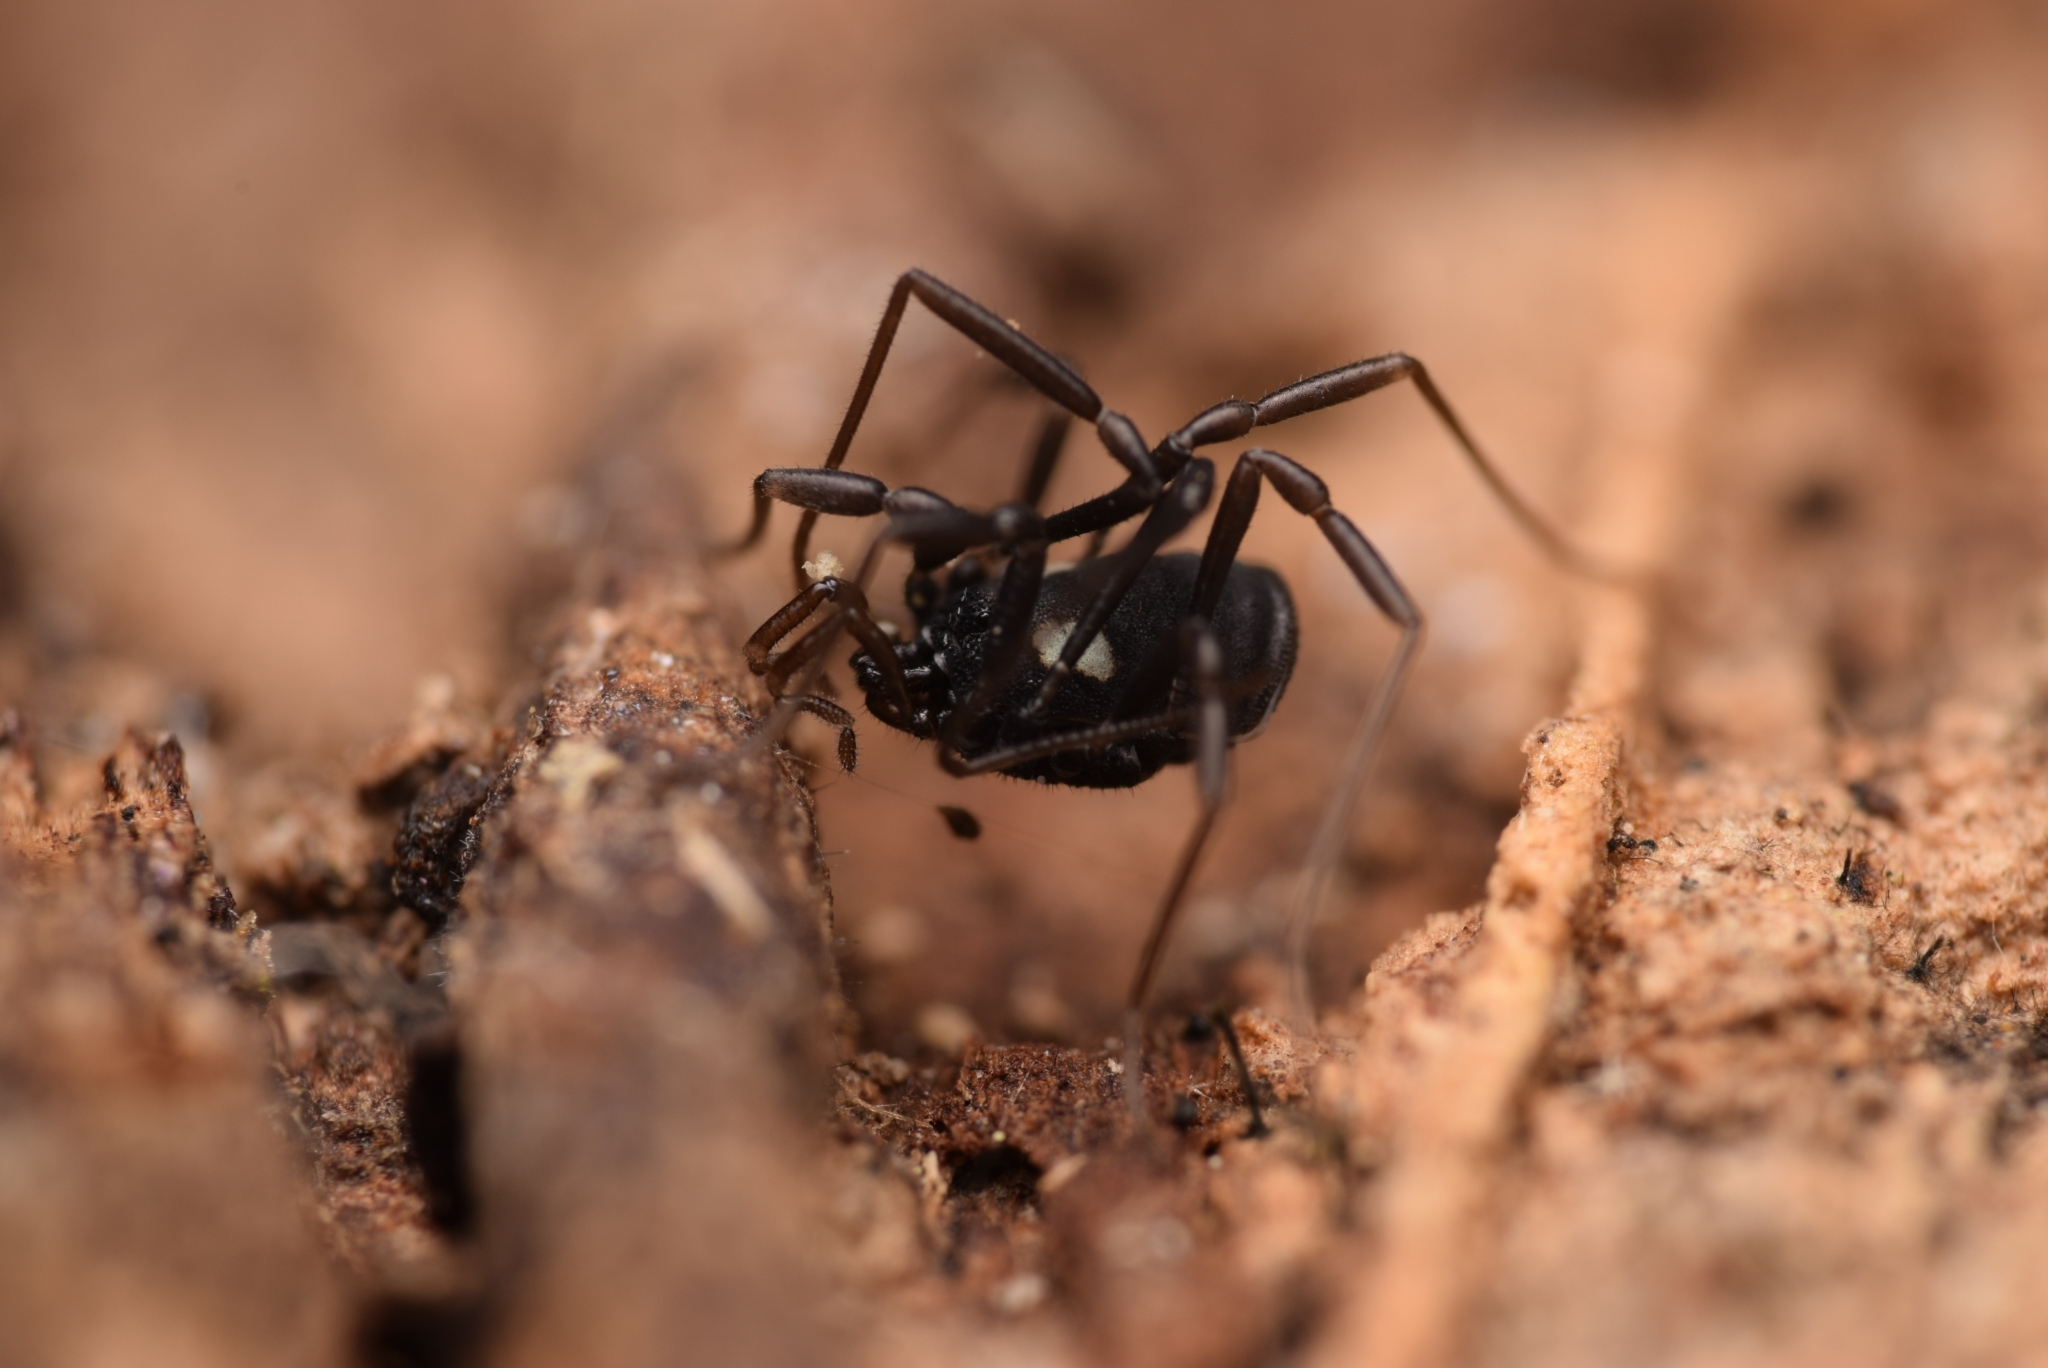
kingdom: Animalia
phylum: Arthropoda
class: Arachnida
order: Opiliones
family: Nemastomatidae
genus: Nemastoma
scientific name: Nemastoma bimaculatum
